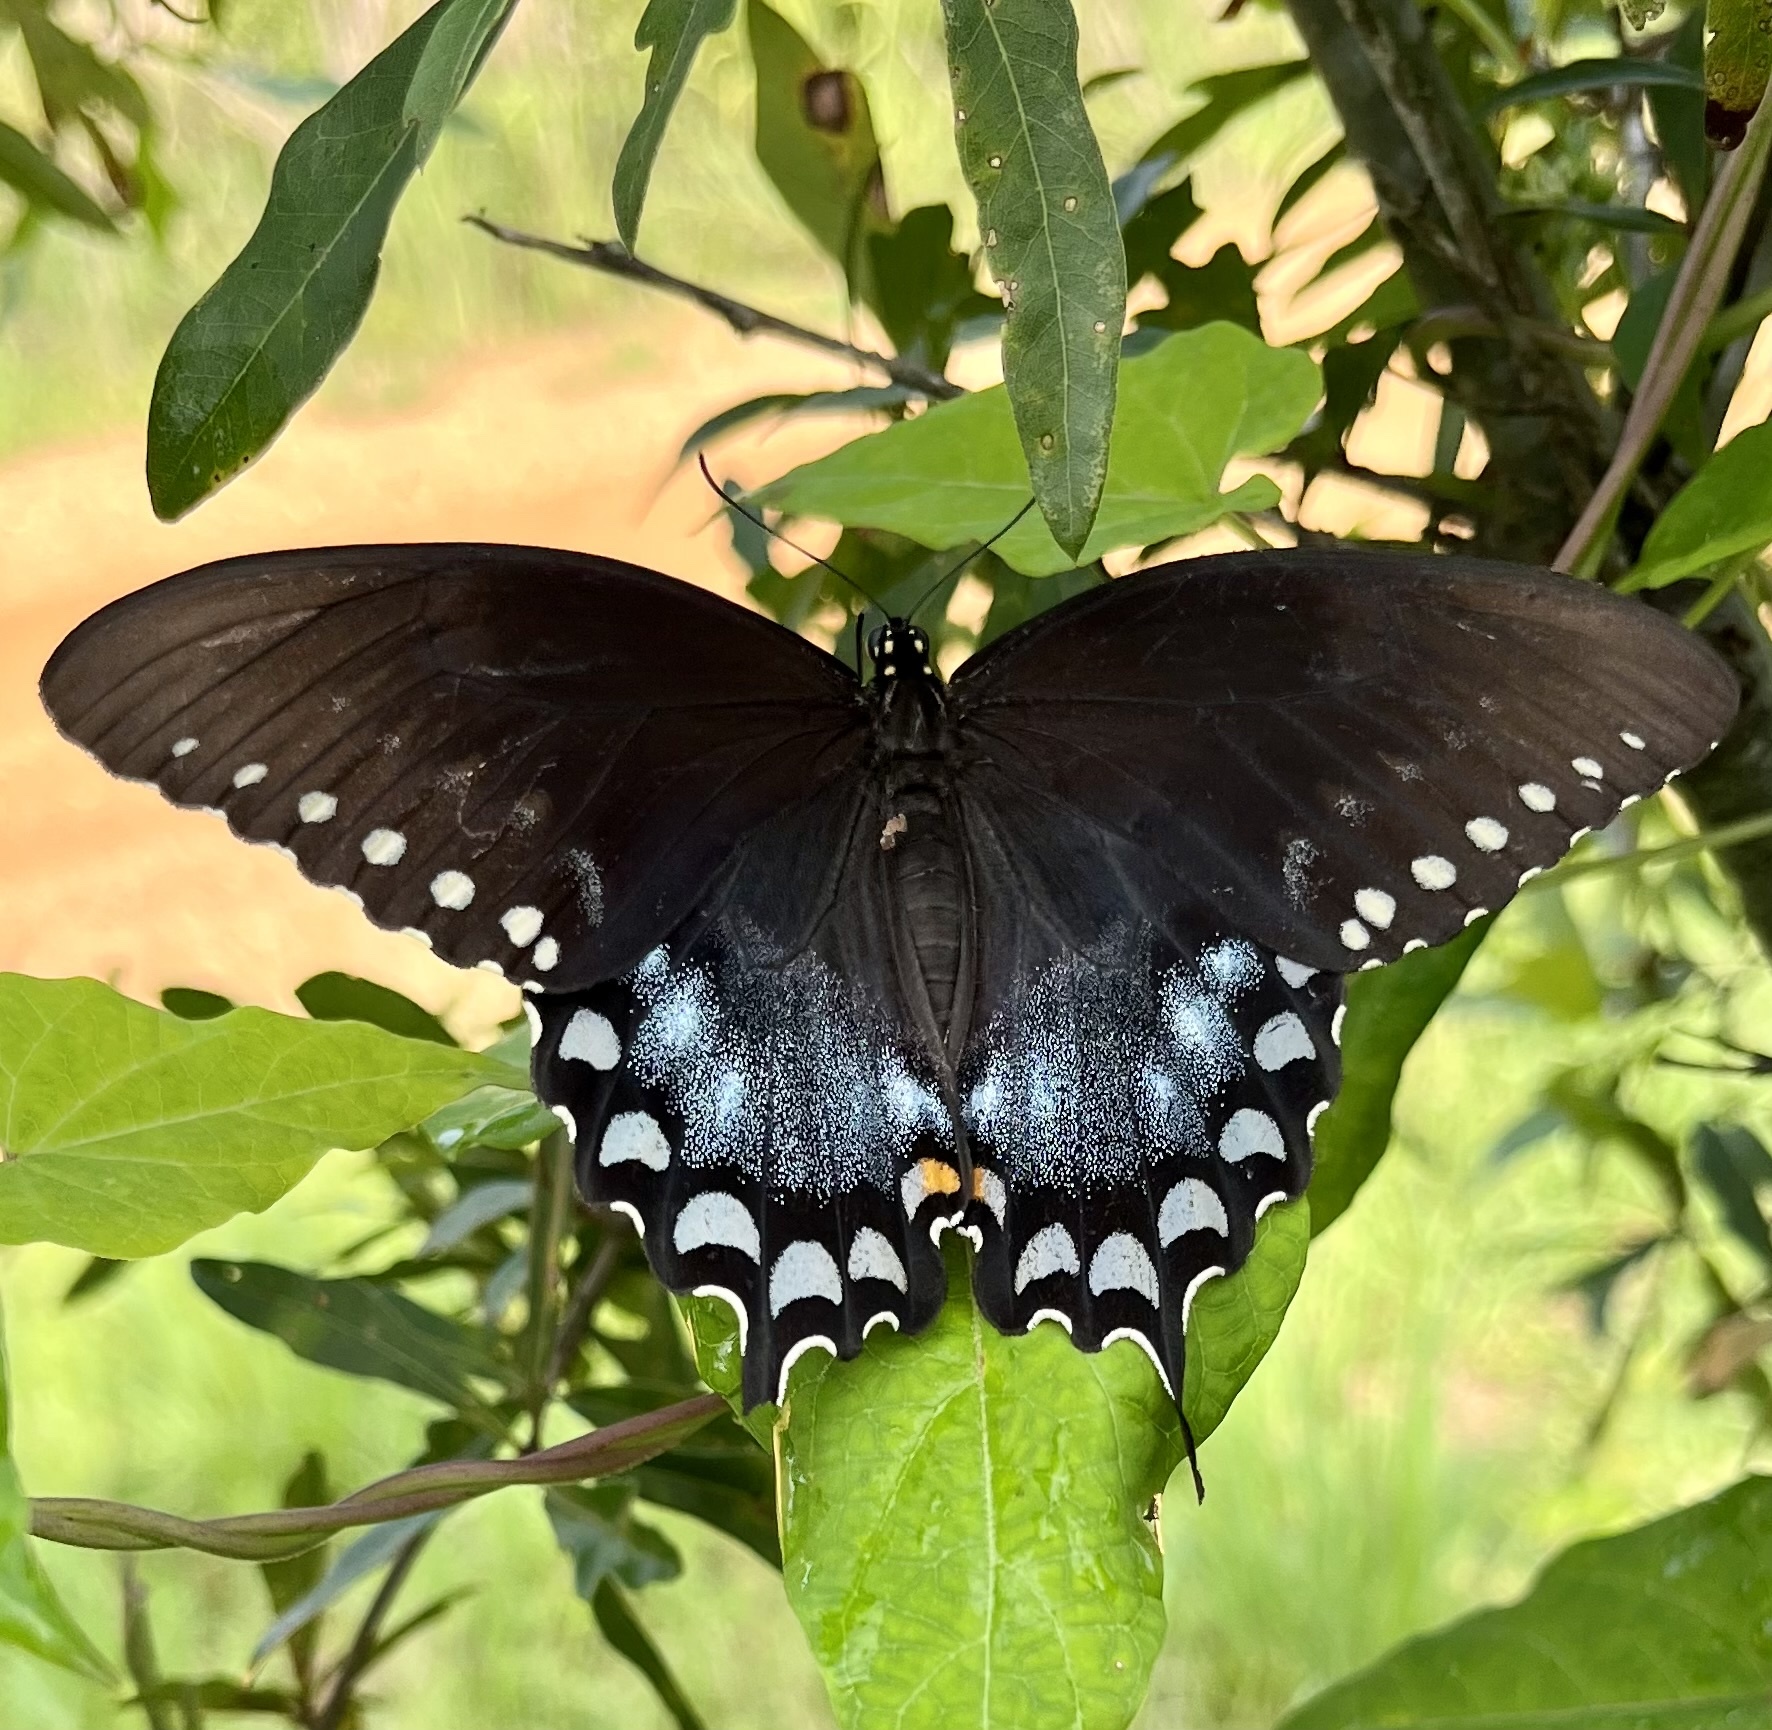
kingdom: Animalia
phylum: Arthropoda
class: Insecta
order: Lepidoptera
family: Papilionidae
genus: Papilio
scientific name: Papilio troilus
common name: Spicebush swallowtail
